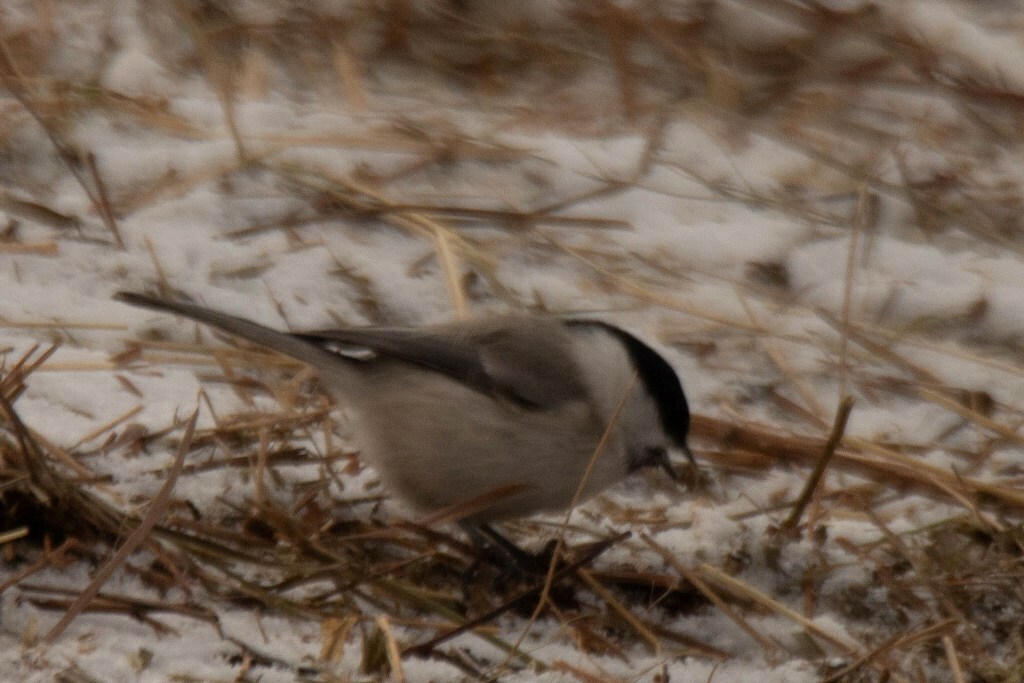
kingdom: Animalia
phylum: Chordata
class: Aves
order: Passeriformes
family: Paridae
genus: Poecile
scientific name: Poecile palustris
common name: Marsh tit
